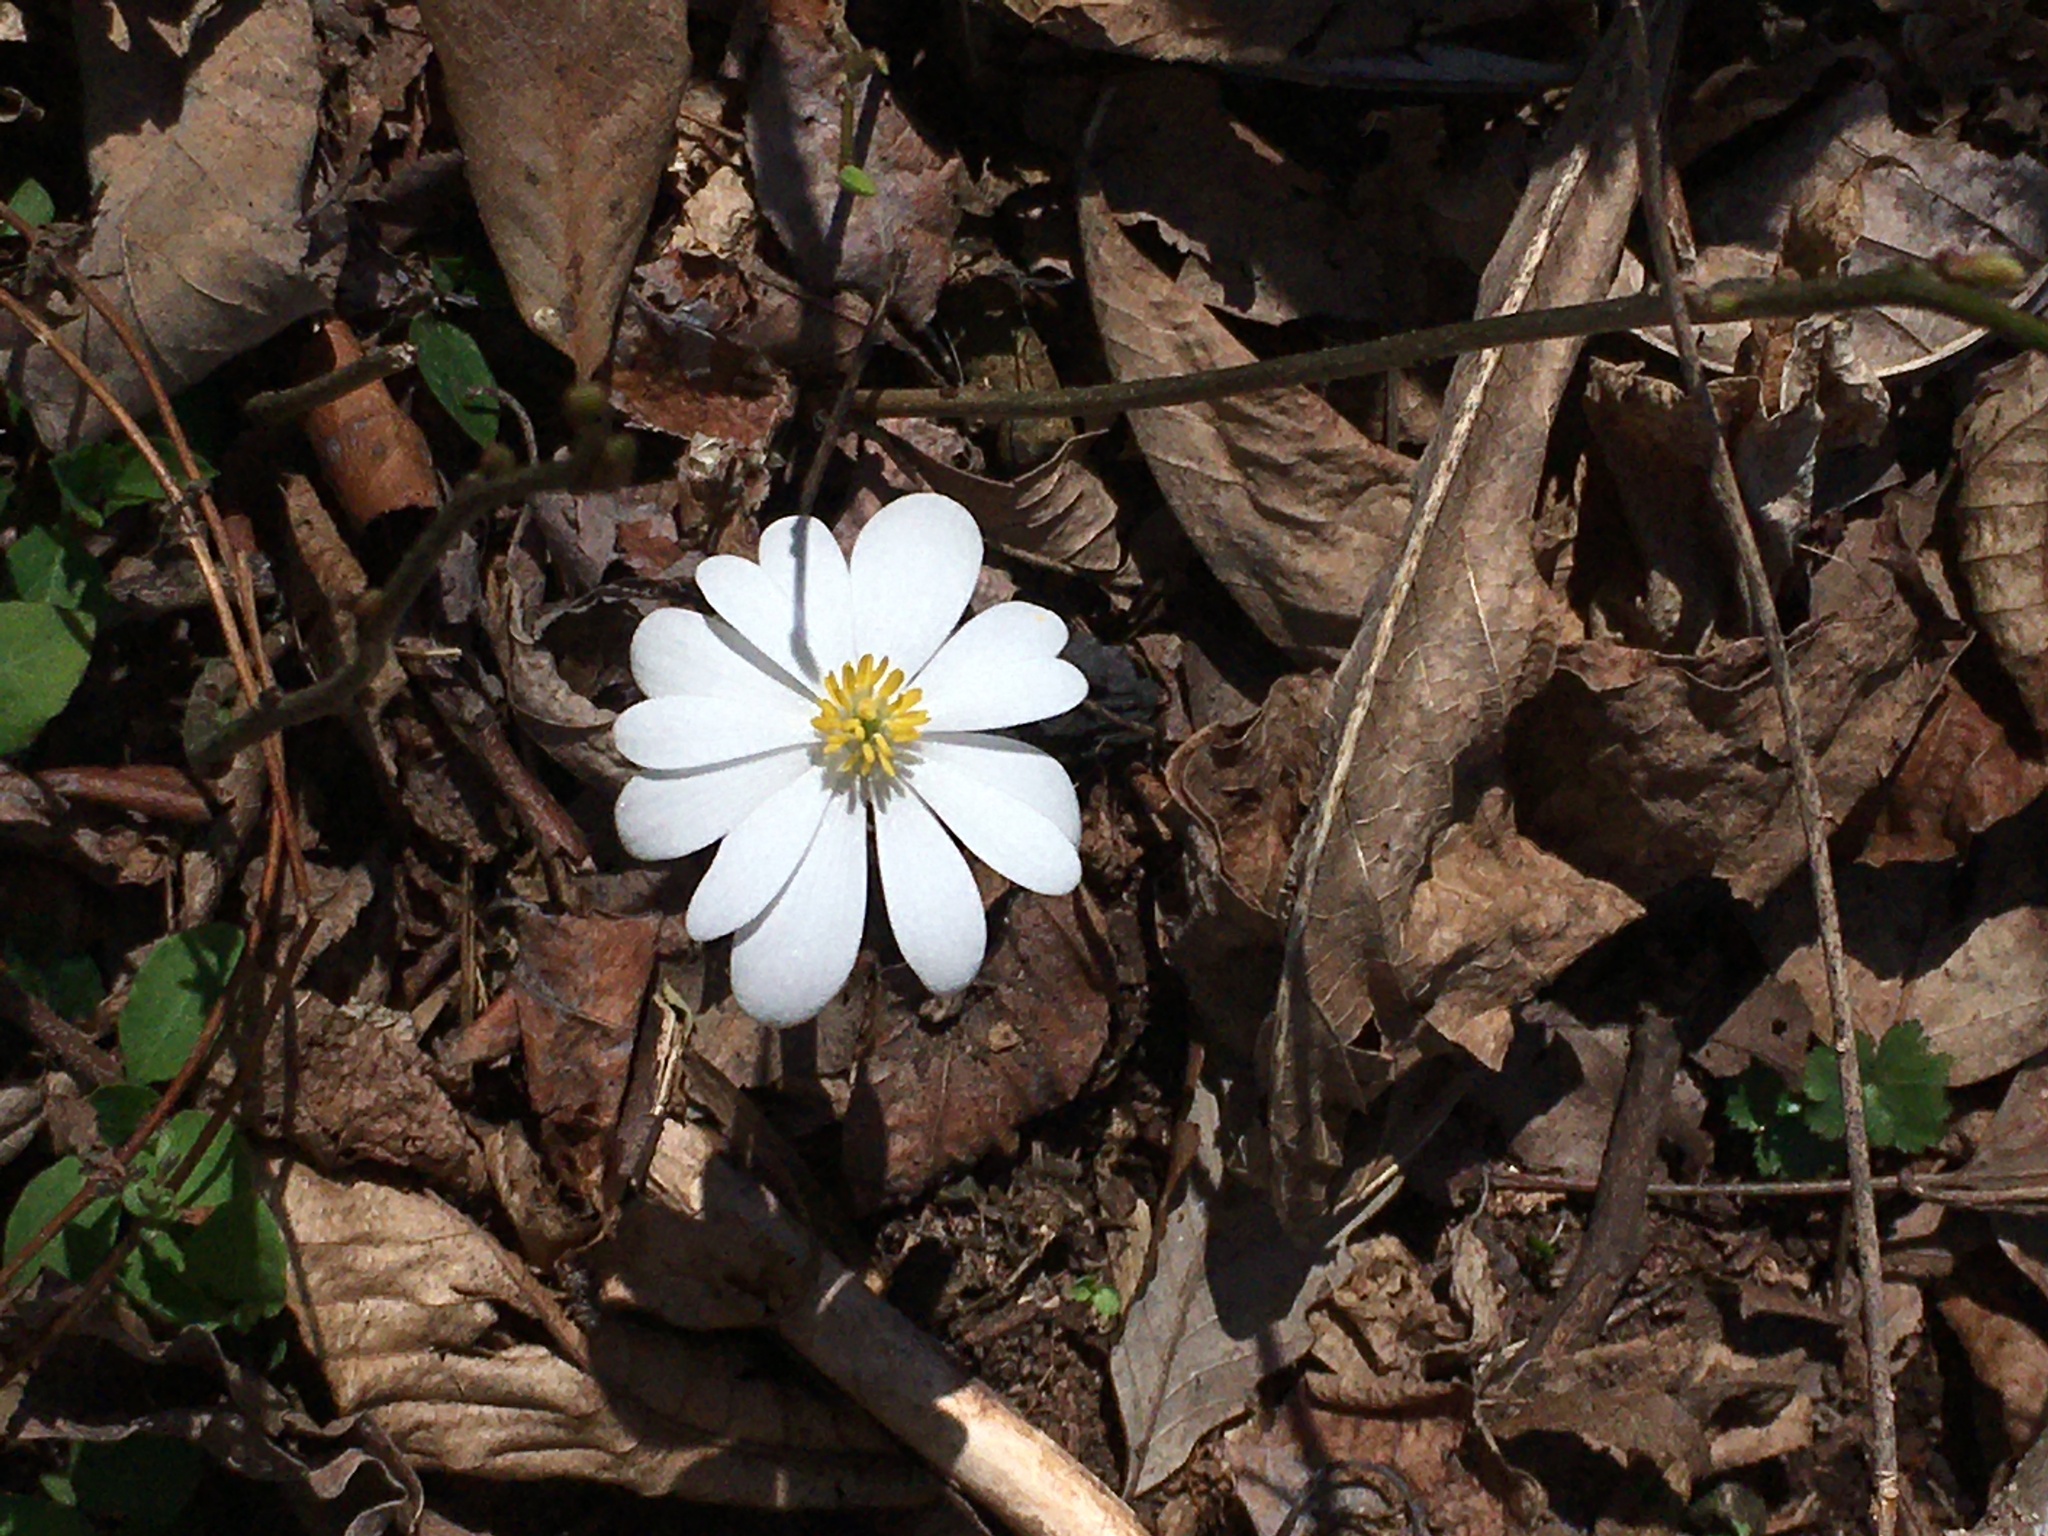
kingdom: Plantae
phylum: Tracheophyta
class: Magnoliopsida
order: Ranunculales
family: Papaveraceae
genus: Sanguinaria
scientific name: Sanguinaria canadensis
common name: Bloodroot
